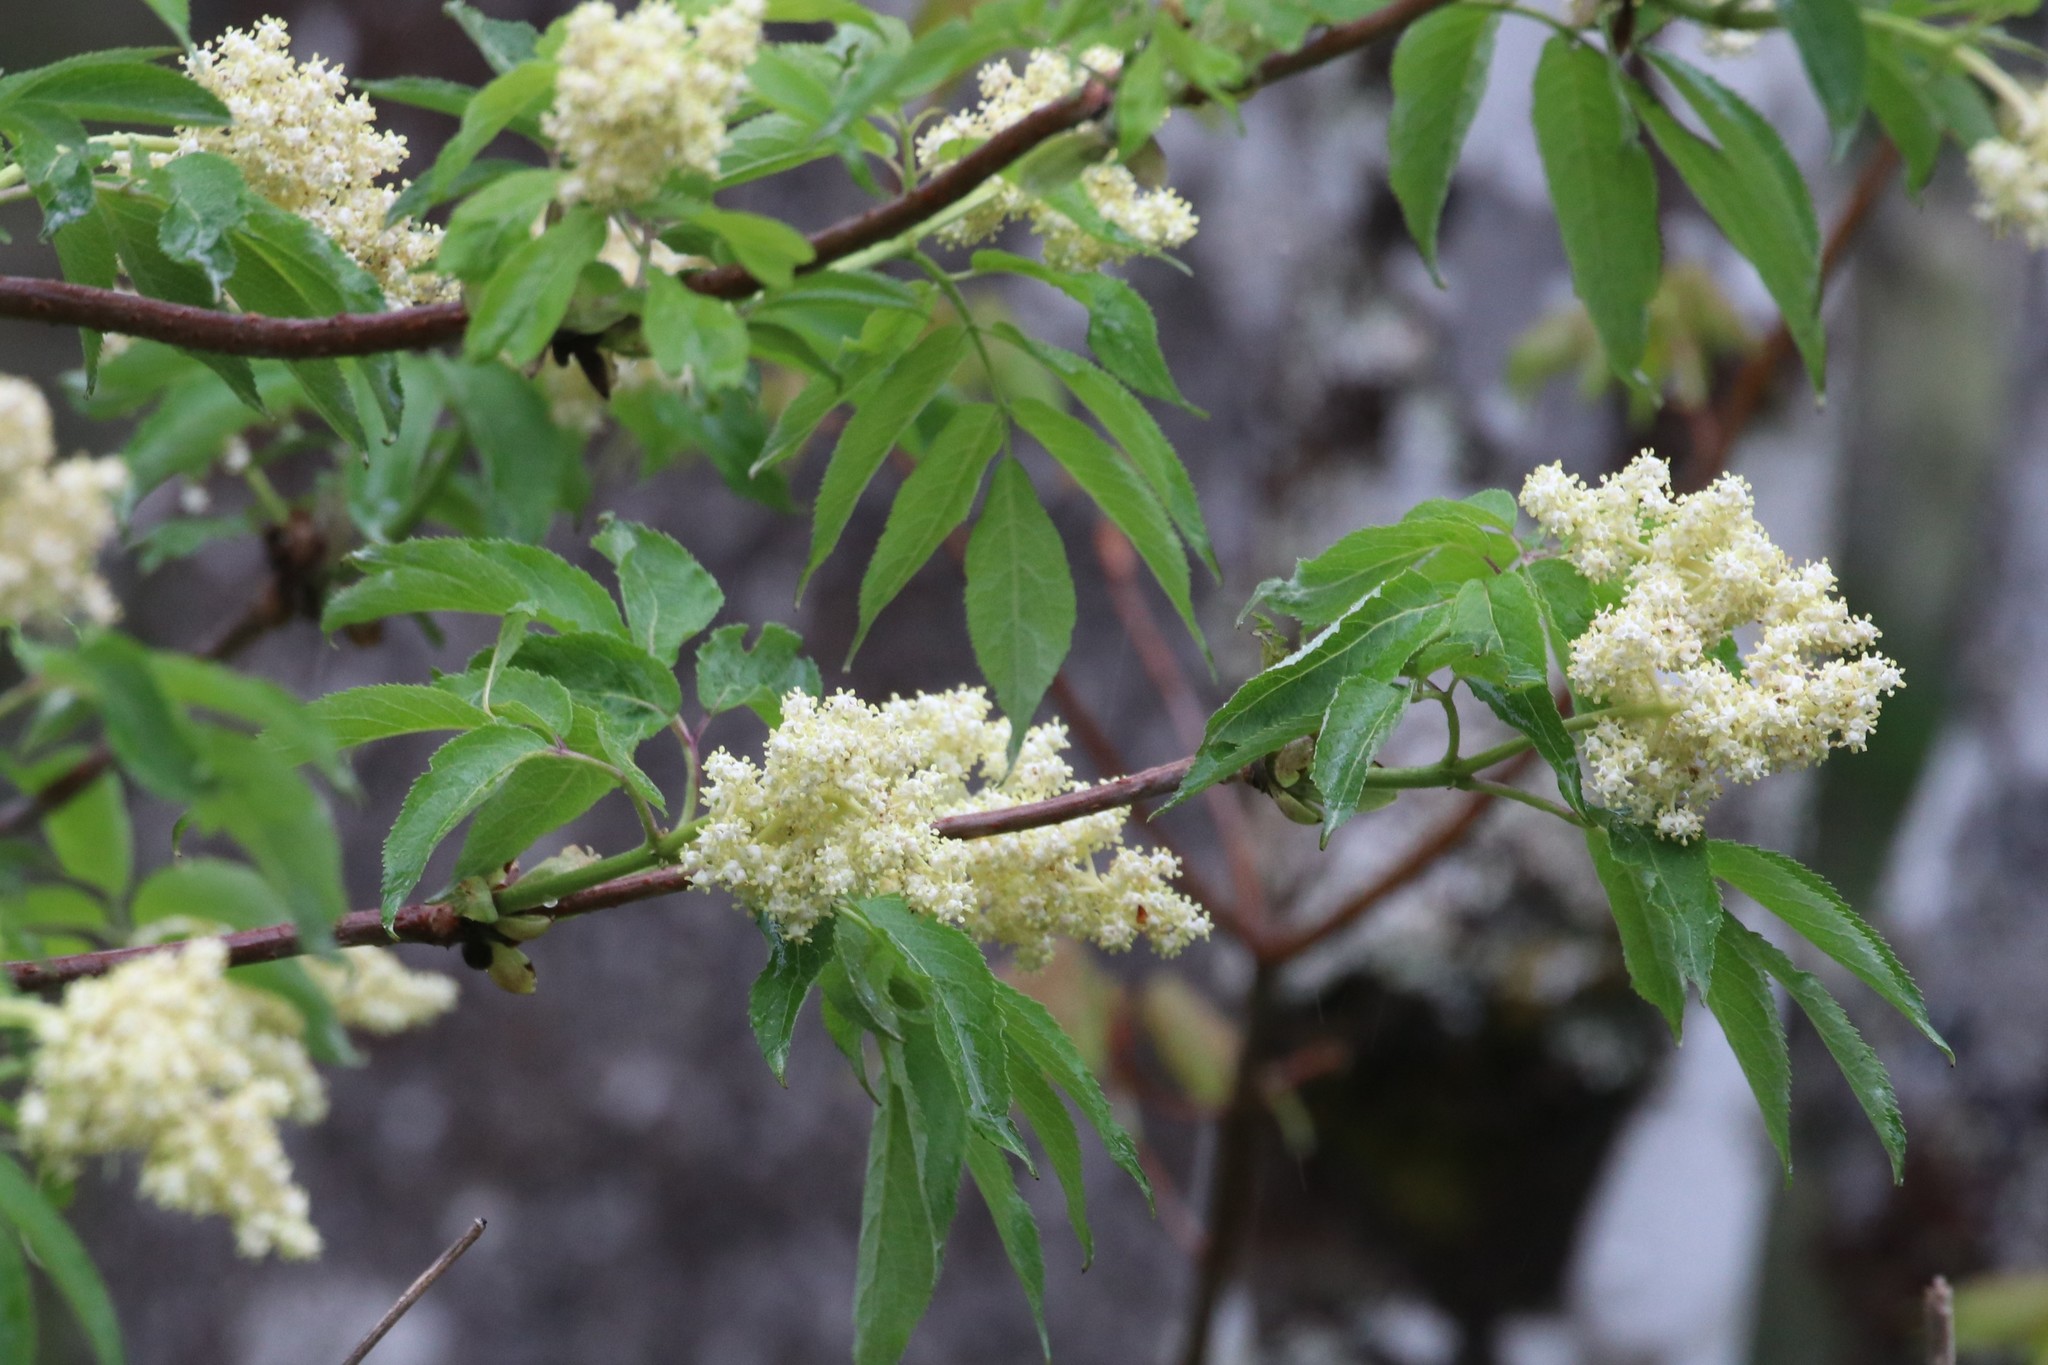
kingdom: Plantae
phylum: Tracheophyta
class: Magnoliopsida
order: Dipsacales
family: Viburnaceae
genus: Sambucus
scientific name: Sambucus racemosa
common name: Red-berried elder
